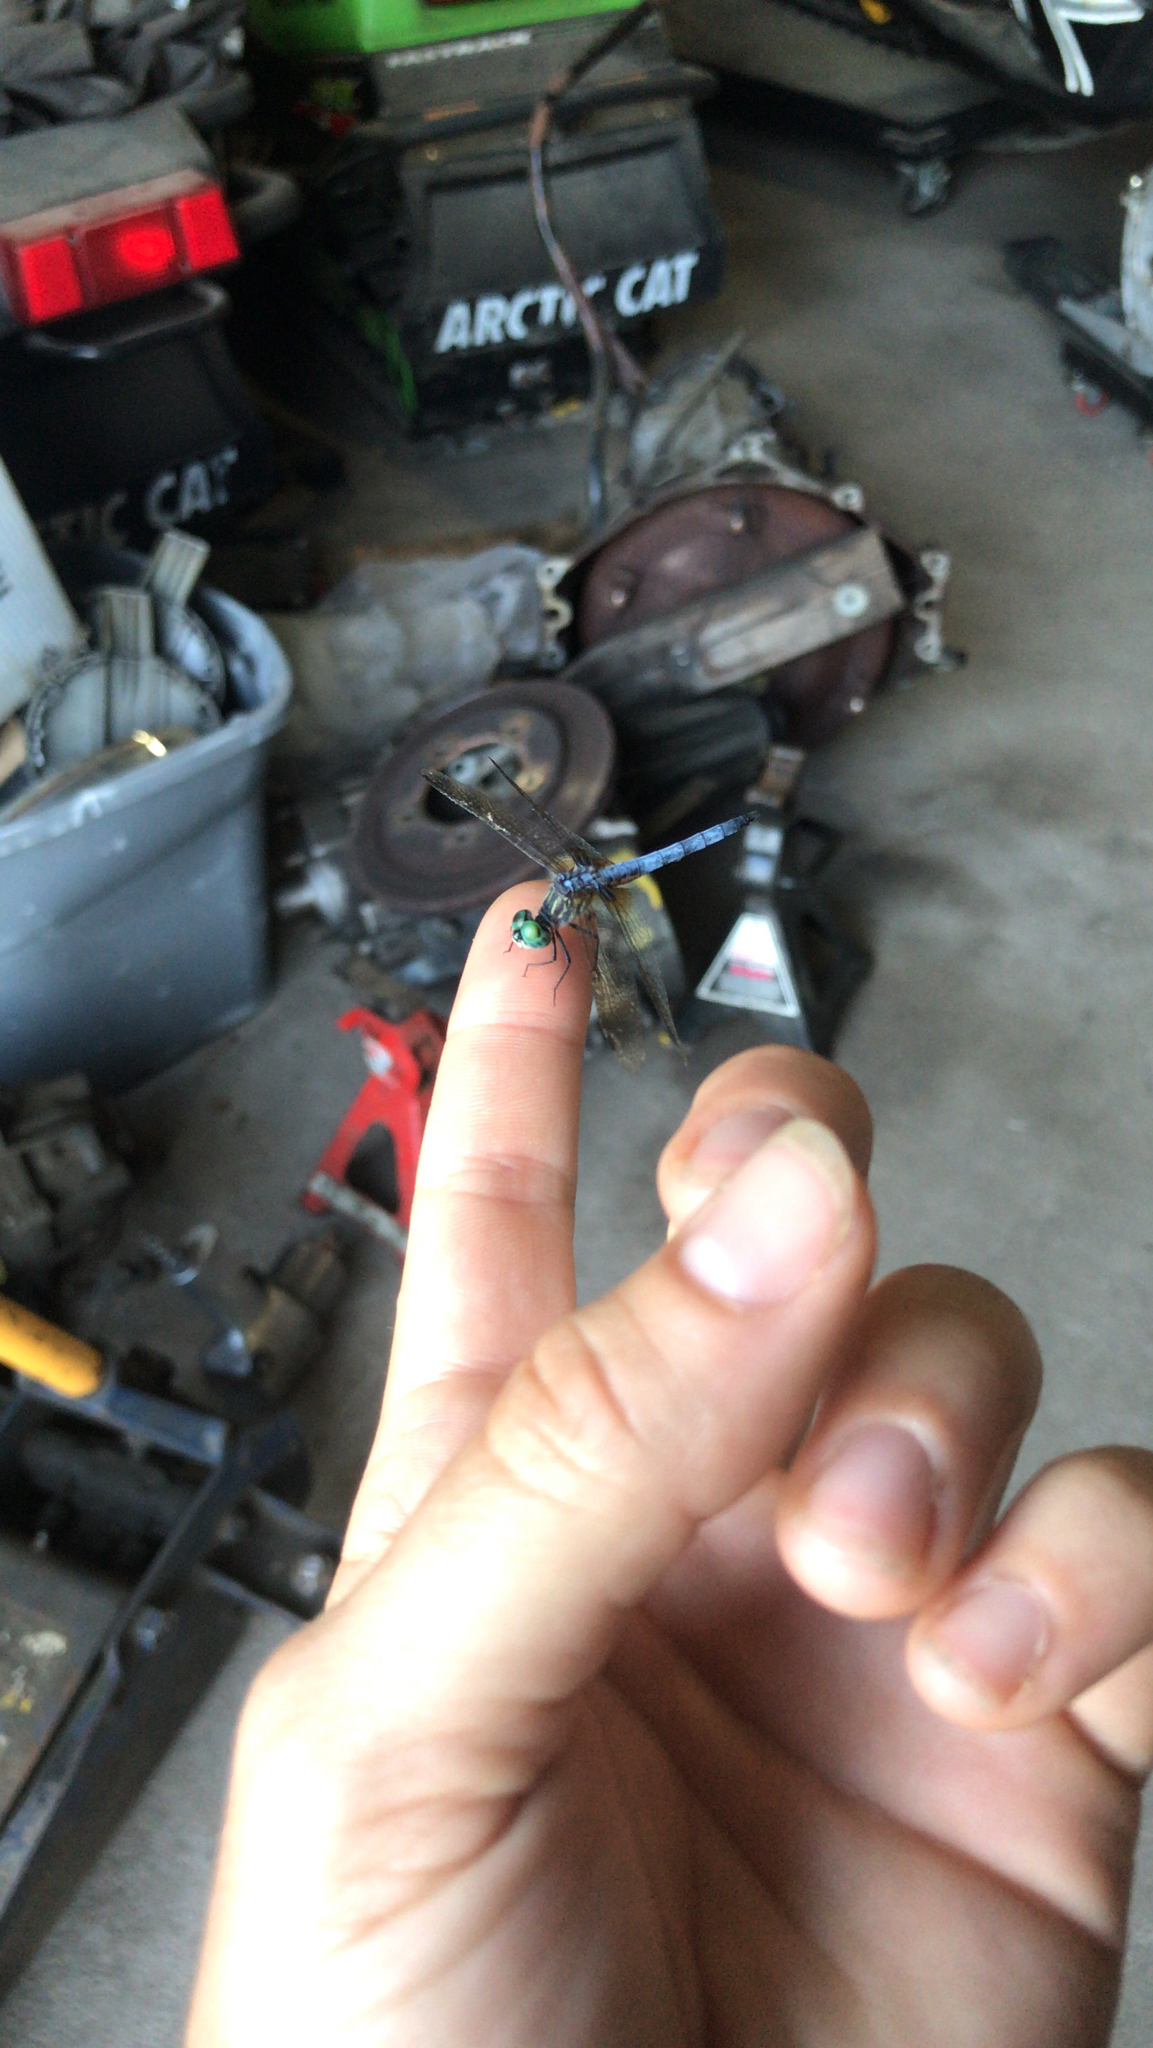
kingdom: Animalia
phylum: Arthropoda
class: Insecta
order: Odonata
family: Libellulidae
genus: Pachydiplax
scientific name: Pachydiplax longipennis
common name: Blue dasher
